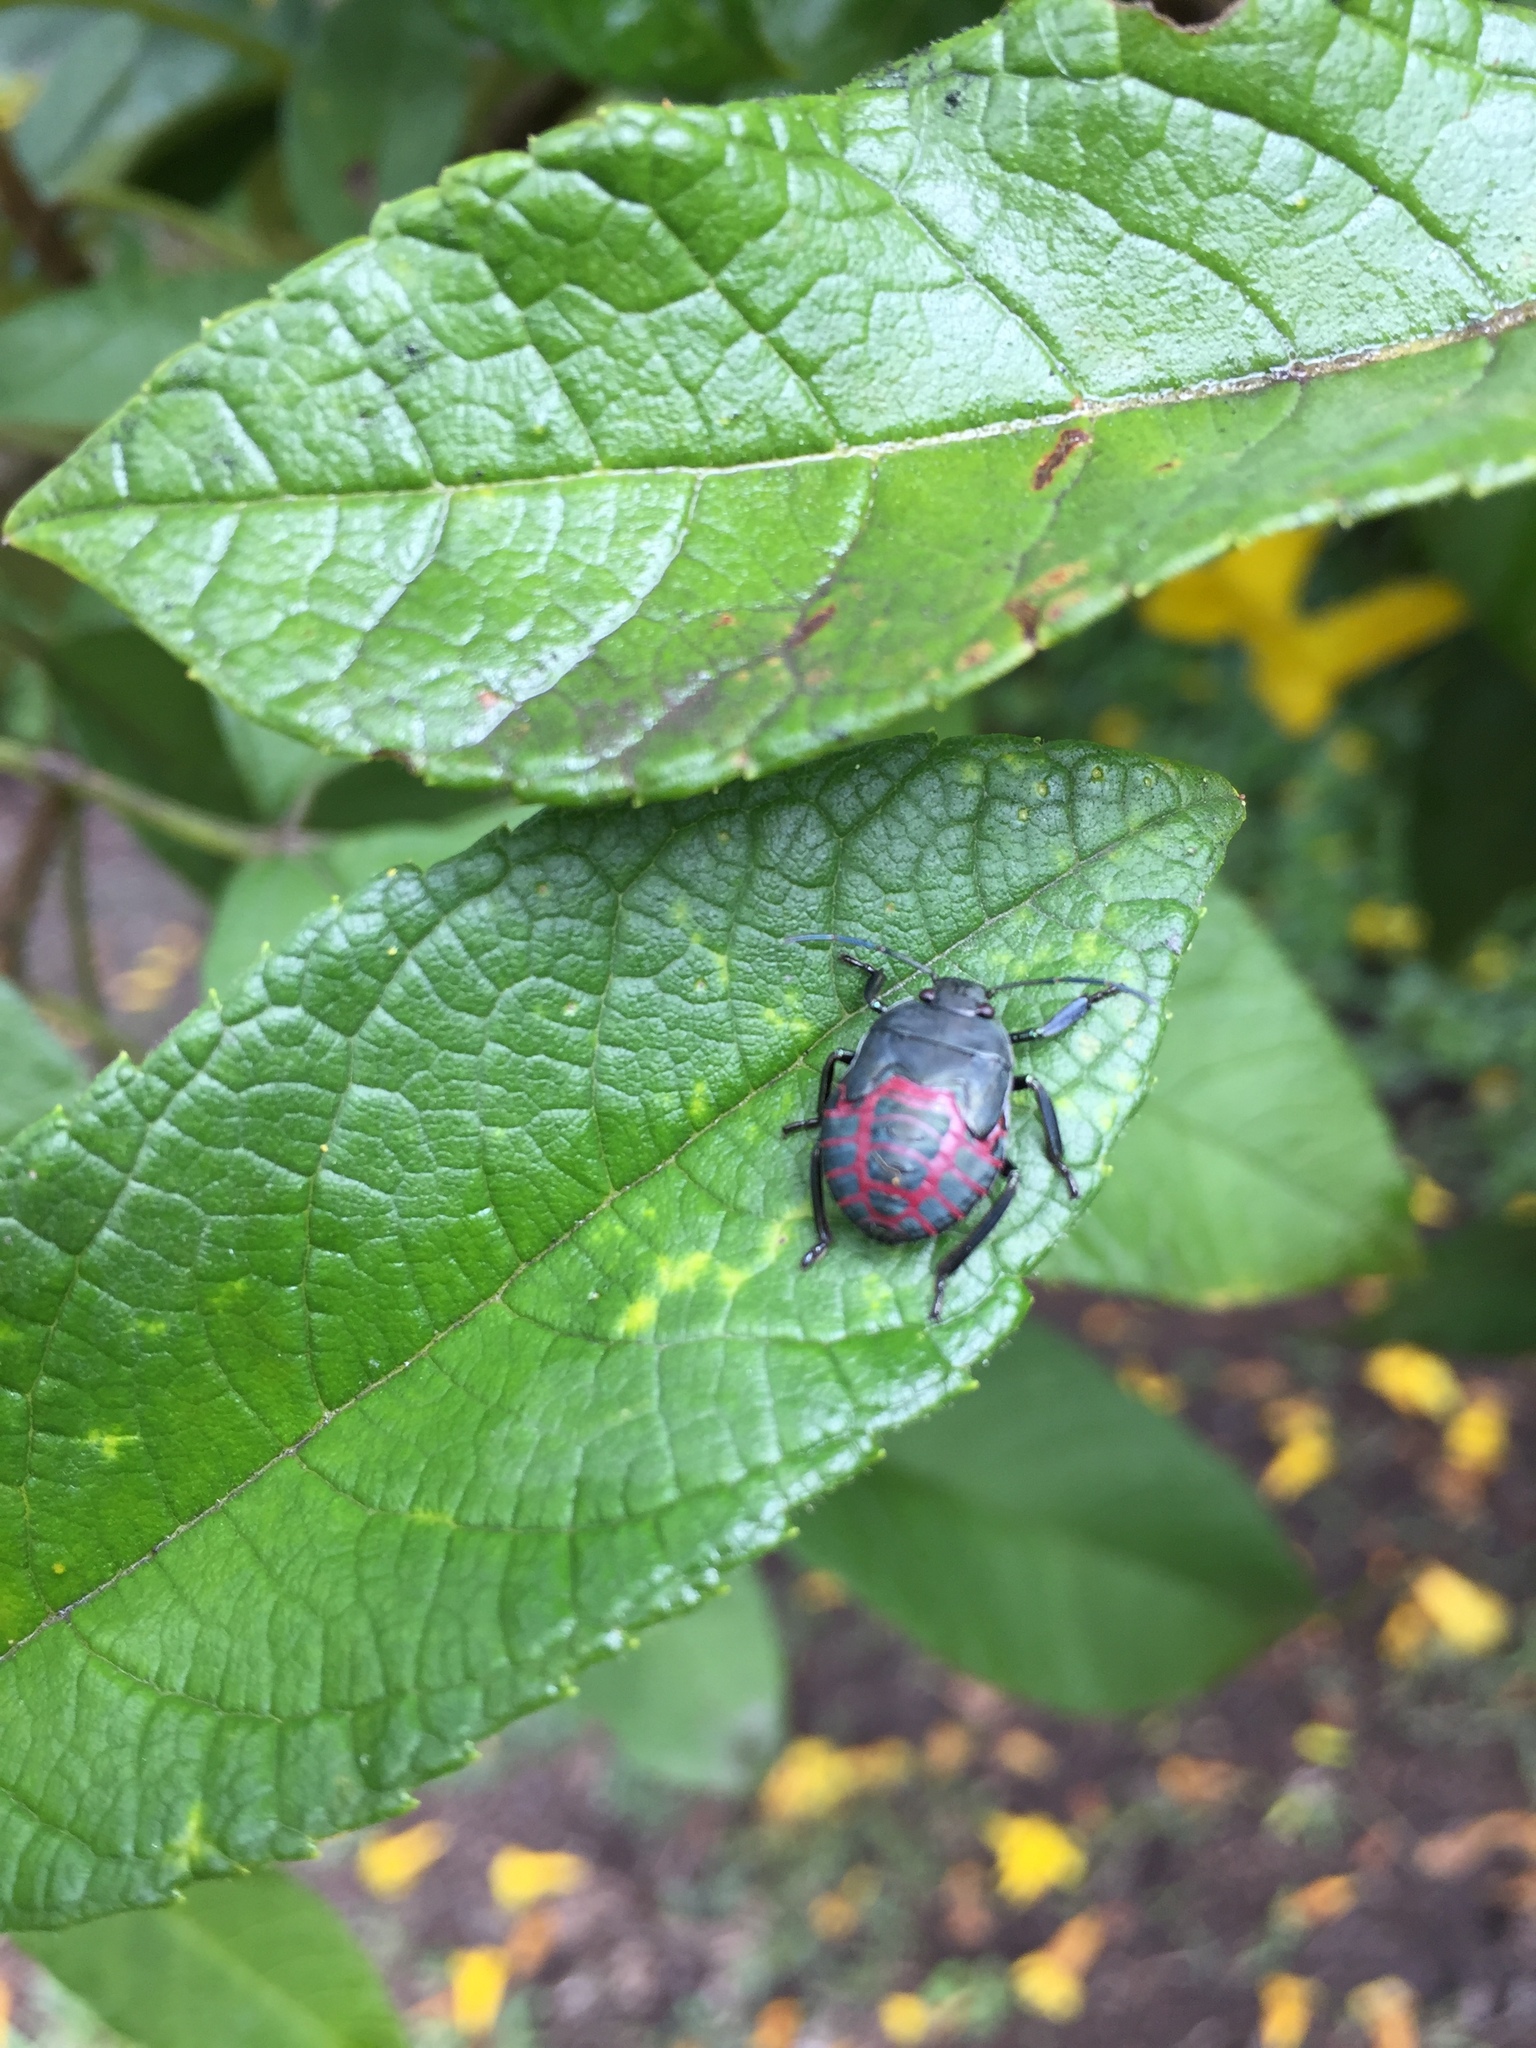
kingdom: Animalia
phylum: Arthropoda
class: Insecta
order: Hemiptera
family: Pentatomidae
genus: Pellaea
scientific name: Pellaea stictica
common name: Stink bug
